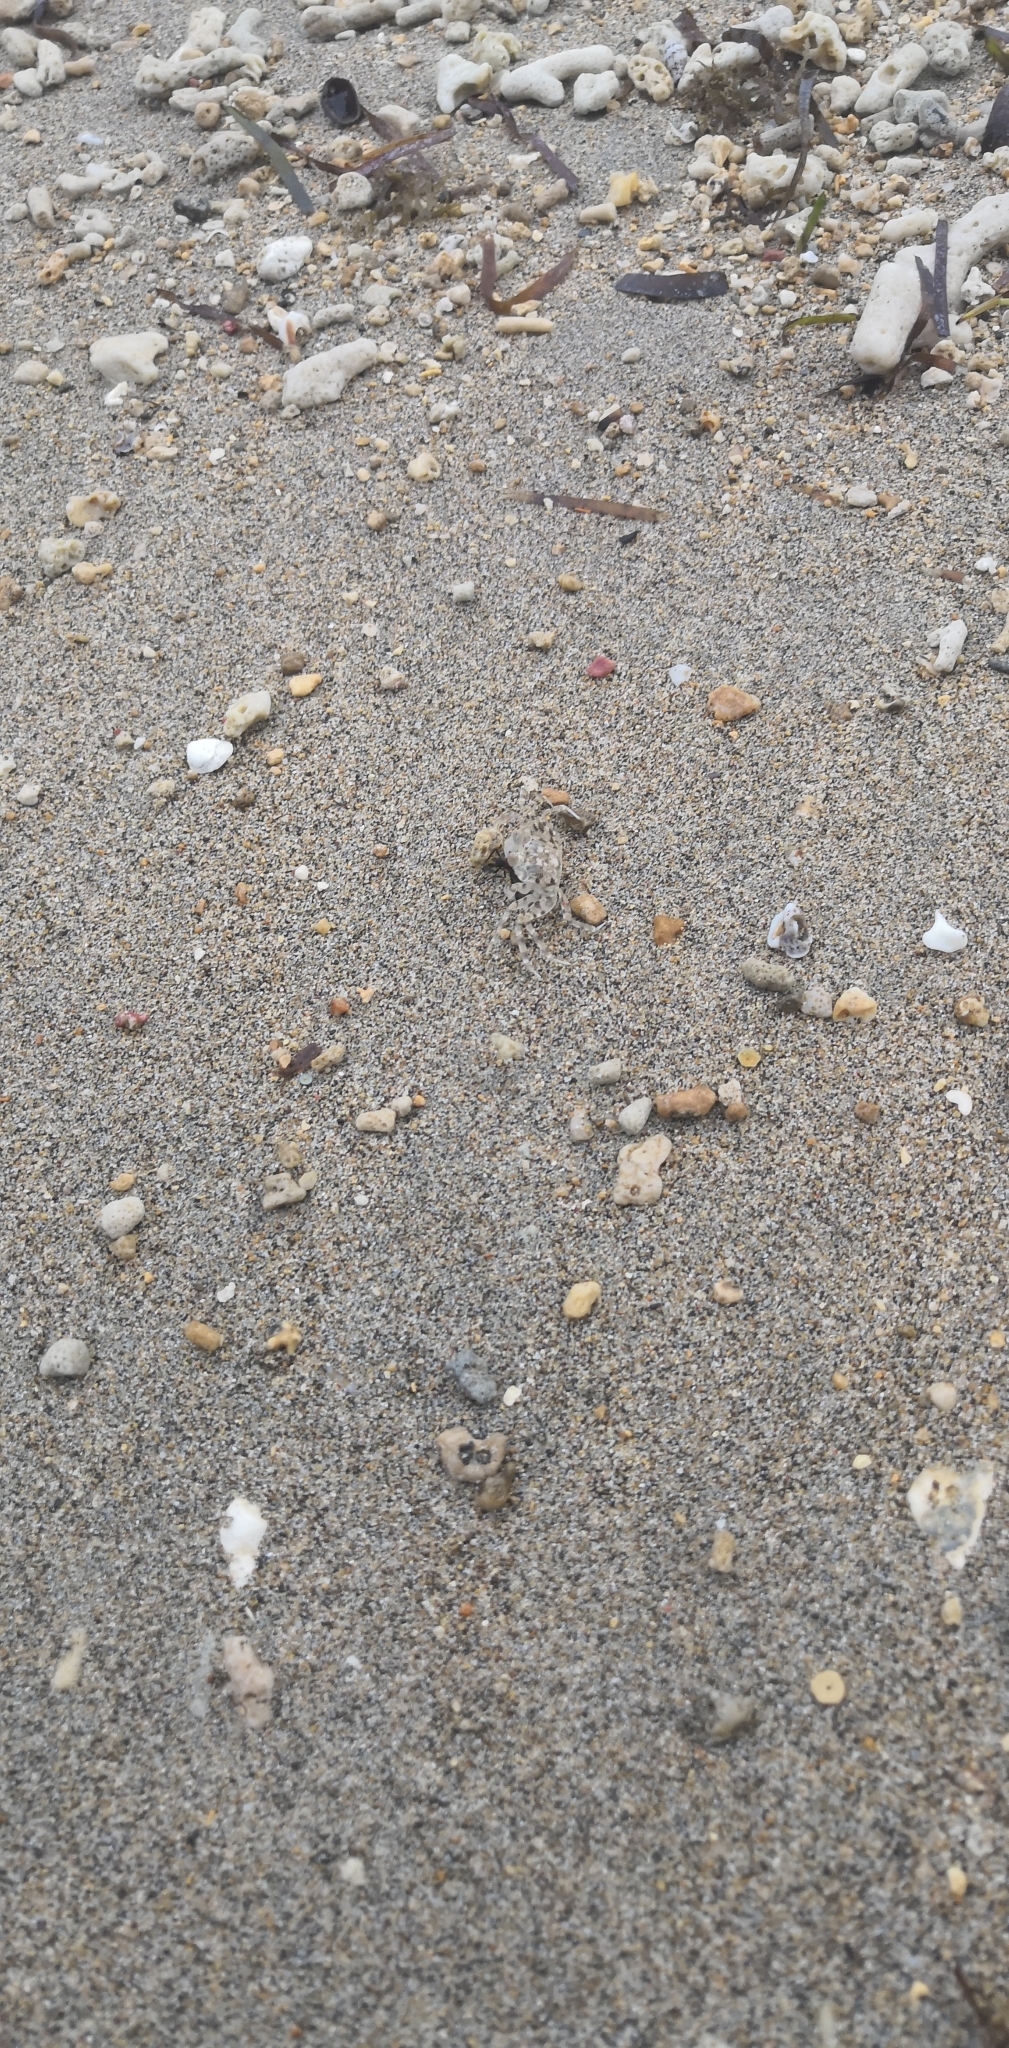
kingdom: Animalia
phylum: Arthropoda
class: Malacostraca
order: Decapoda
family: Ocypodidae
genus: Ocypode
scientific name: Ocypode pallidula
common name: Pallid ghost crab
